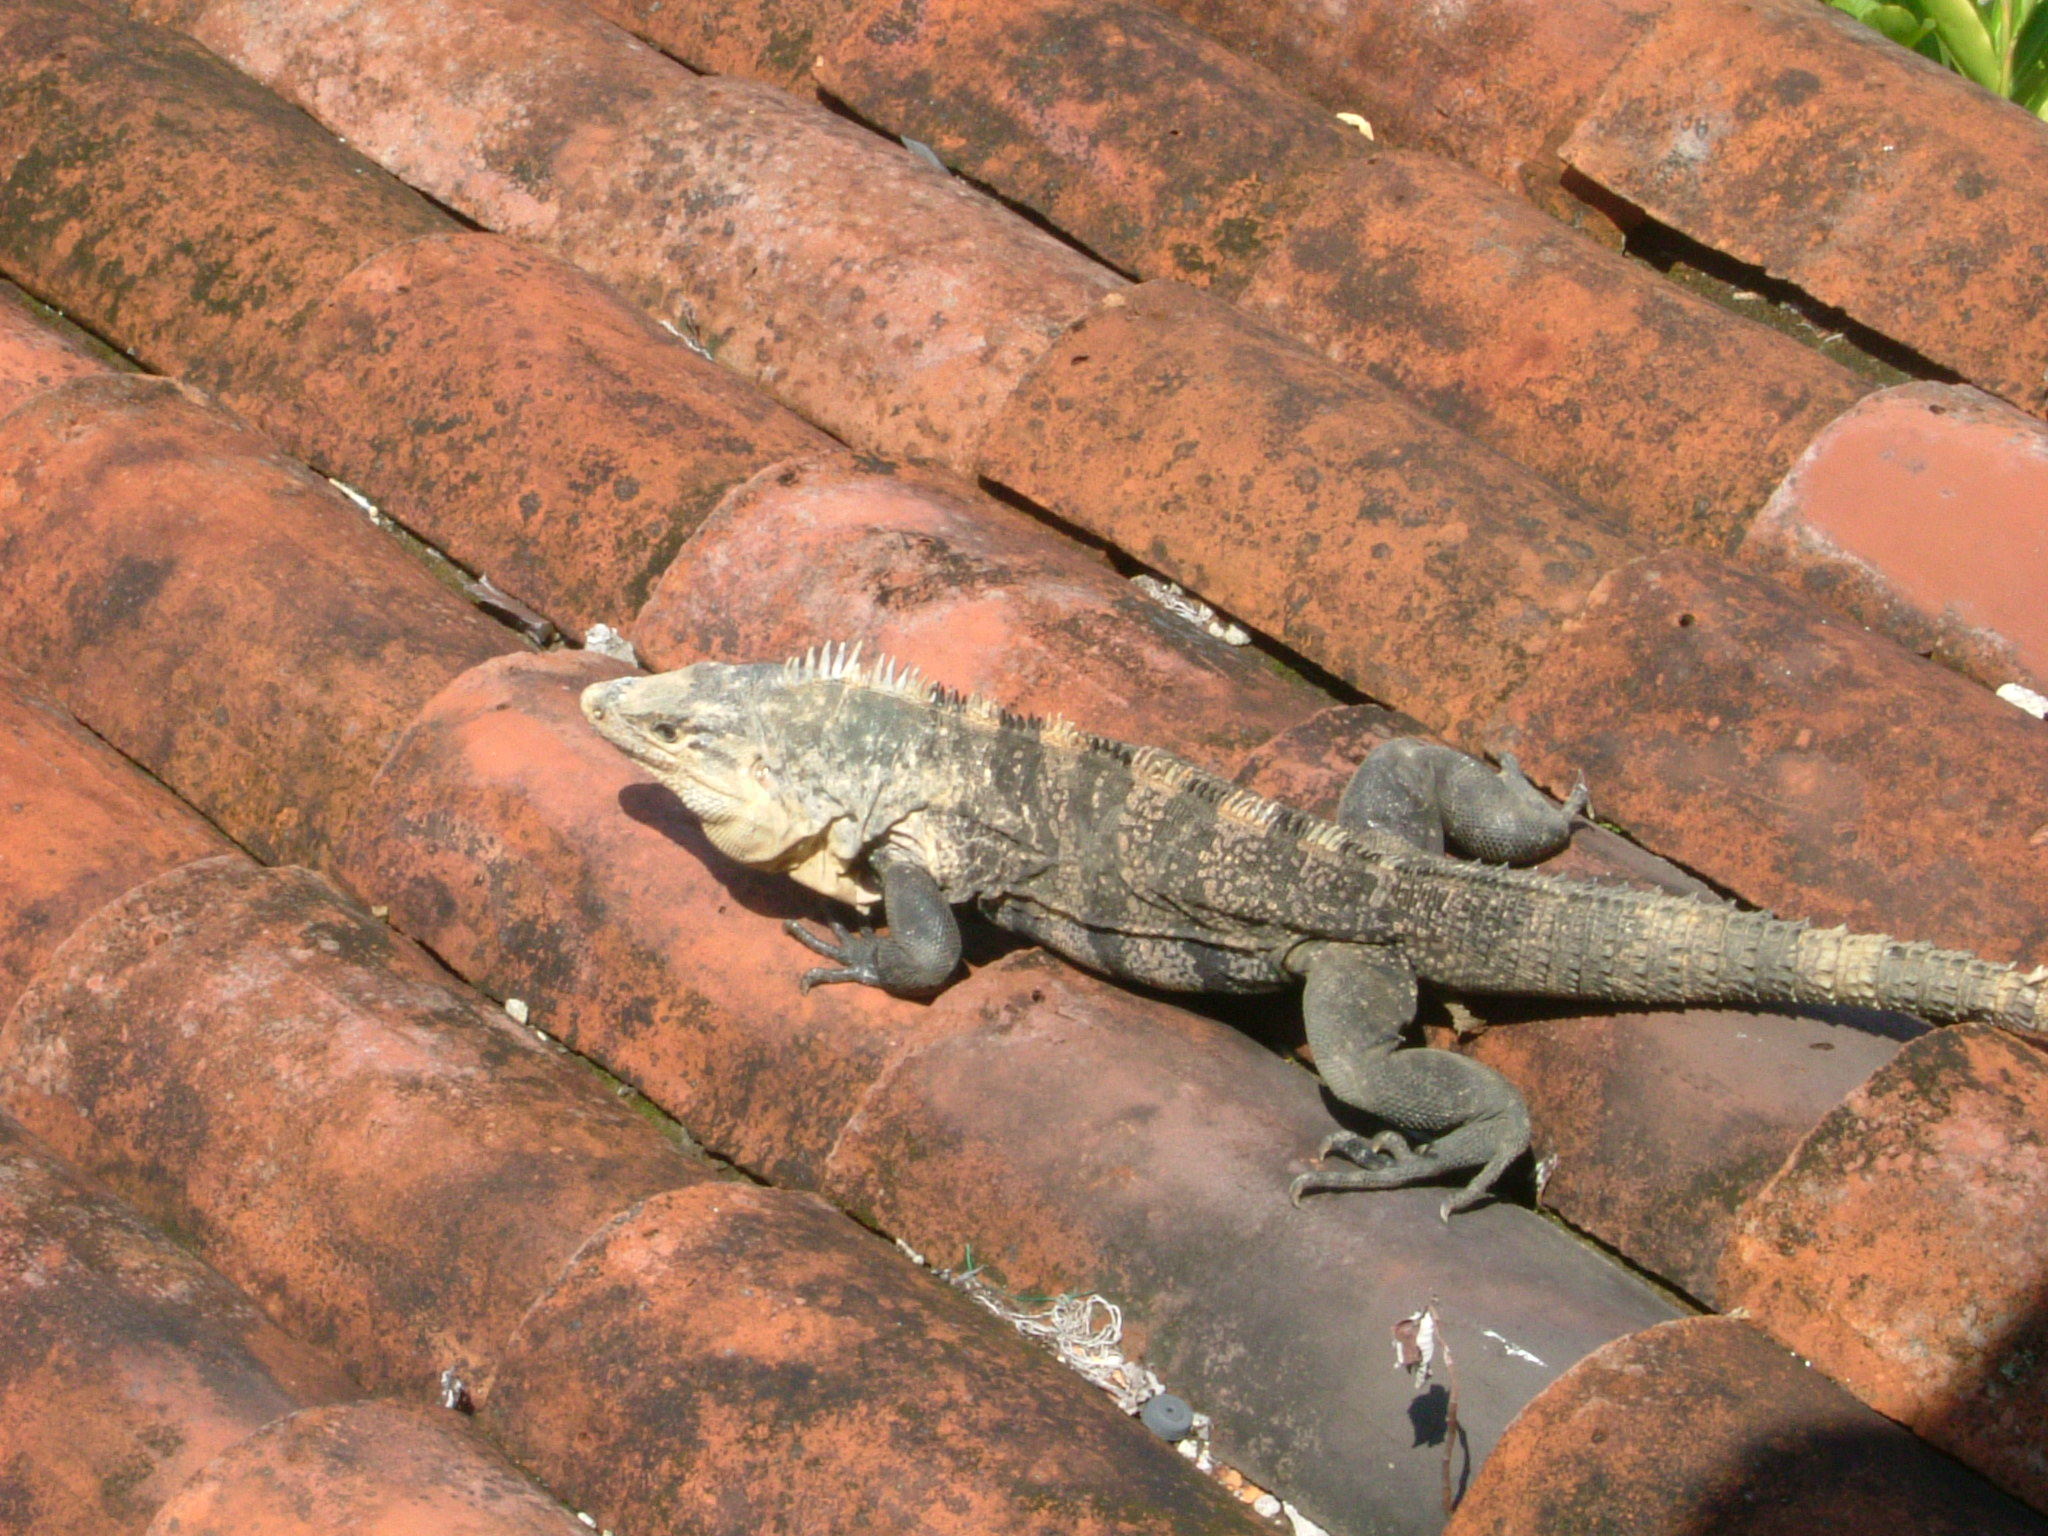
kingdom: Animalia
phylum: Chordata
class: Squamata
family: Iguanidae
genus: Ctenosaura
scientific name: Ctenosaura similis
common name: Black spiny-tailed iguana
